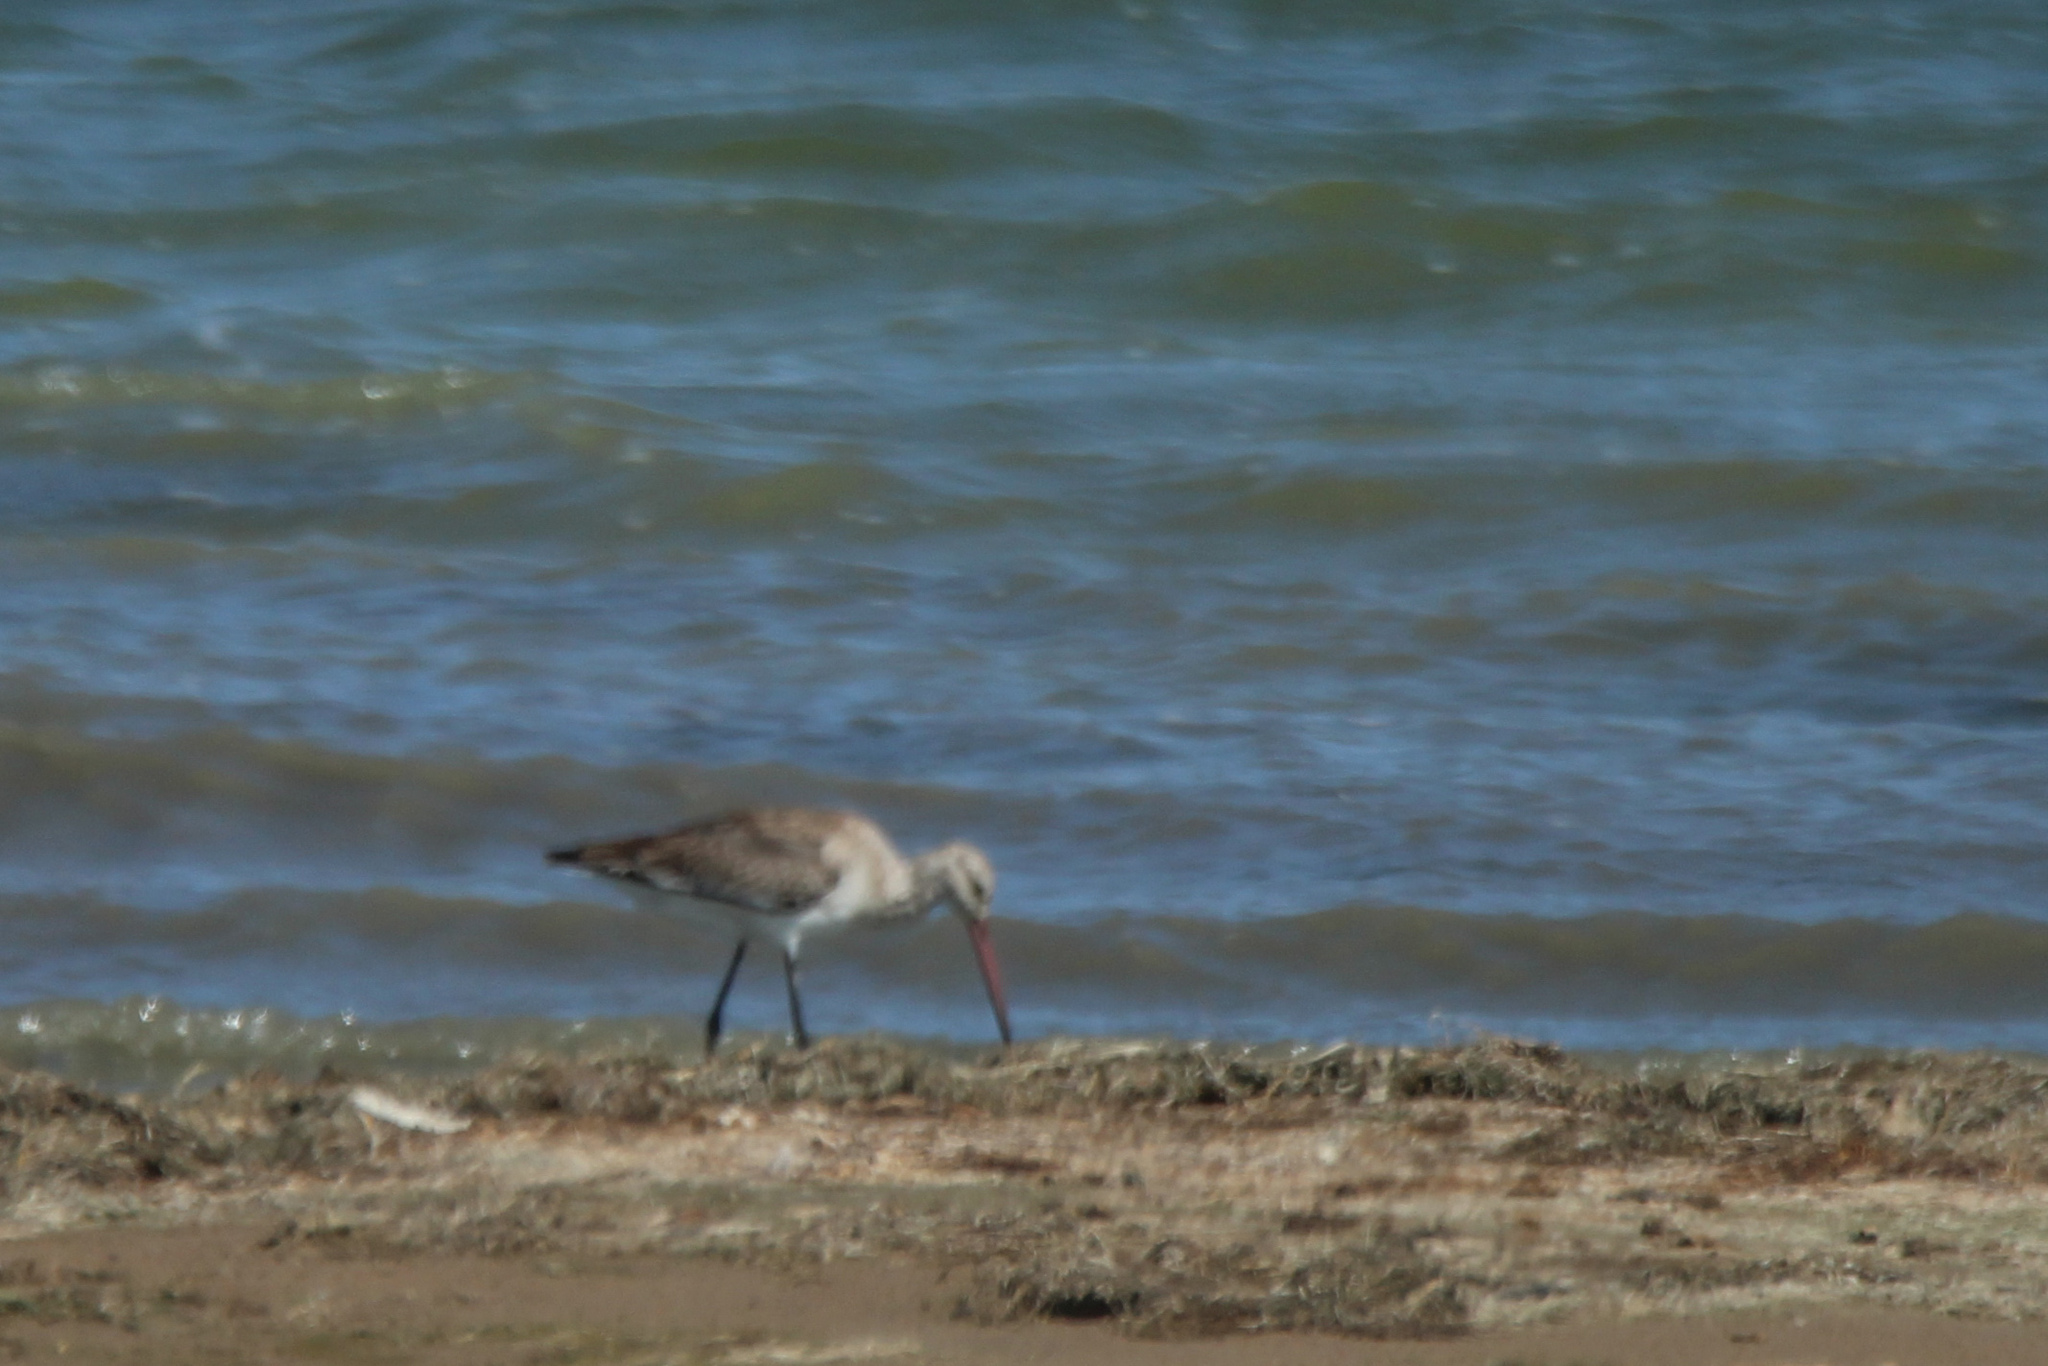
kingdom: Animalia
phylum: Chordata
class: Aves
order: Charadriiformes
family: Scolopacidae
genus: Limosa
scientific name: Limosa limosa
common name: Black-tailed godwit
